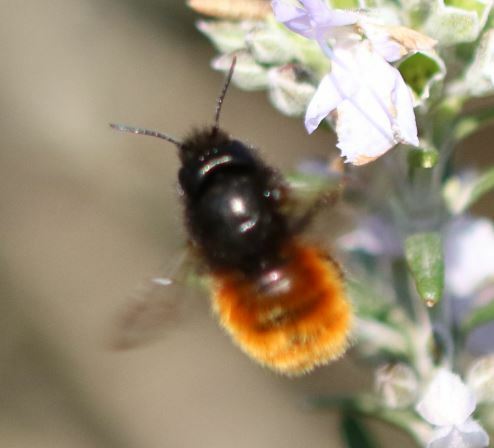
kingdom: Animalia
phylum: Arthropoda
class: Insecta
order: Hymenoptera
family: Megachilidae
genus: Osmia
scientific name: Osmia cornuta
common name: Mason bee
